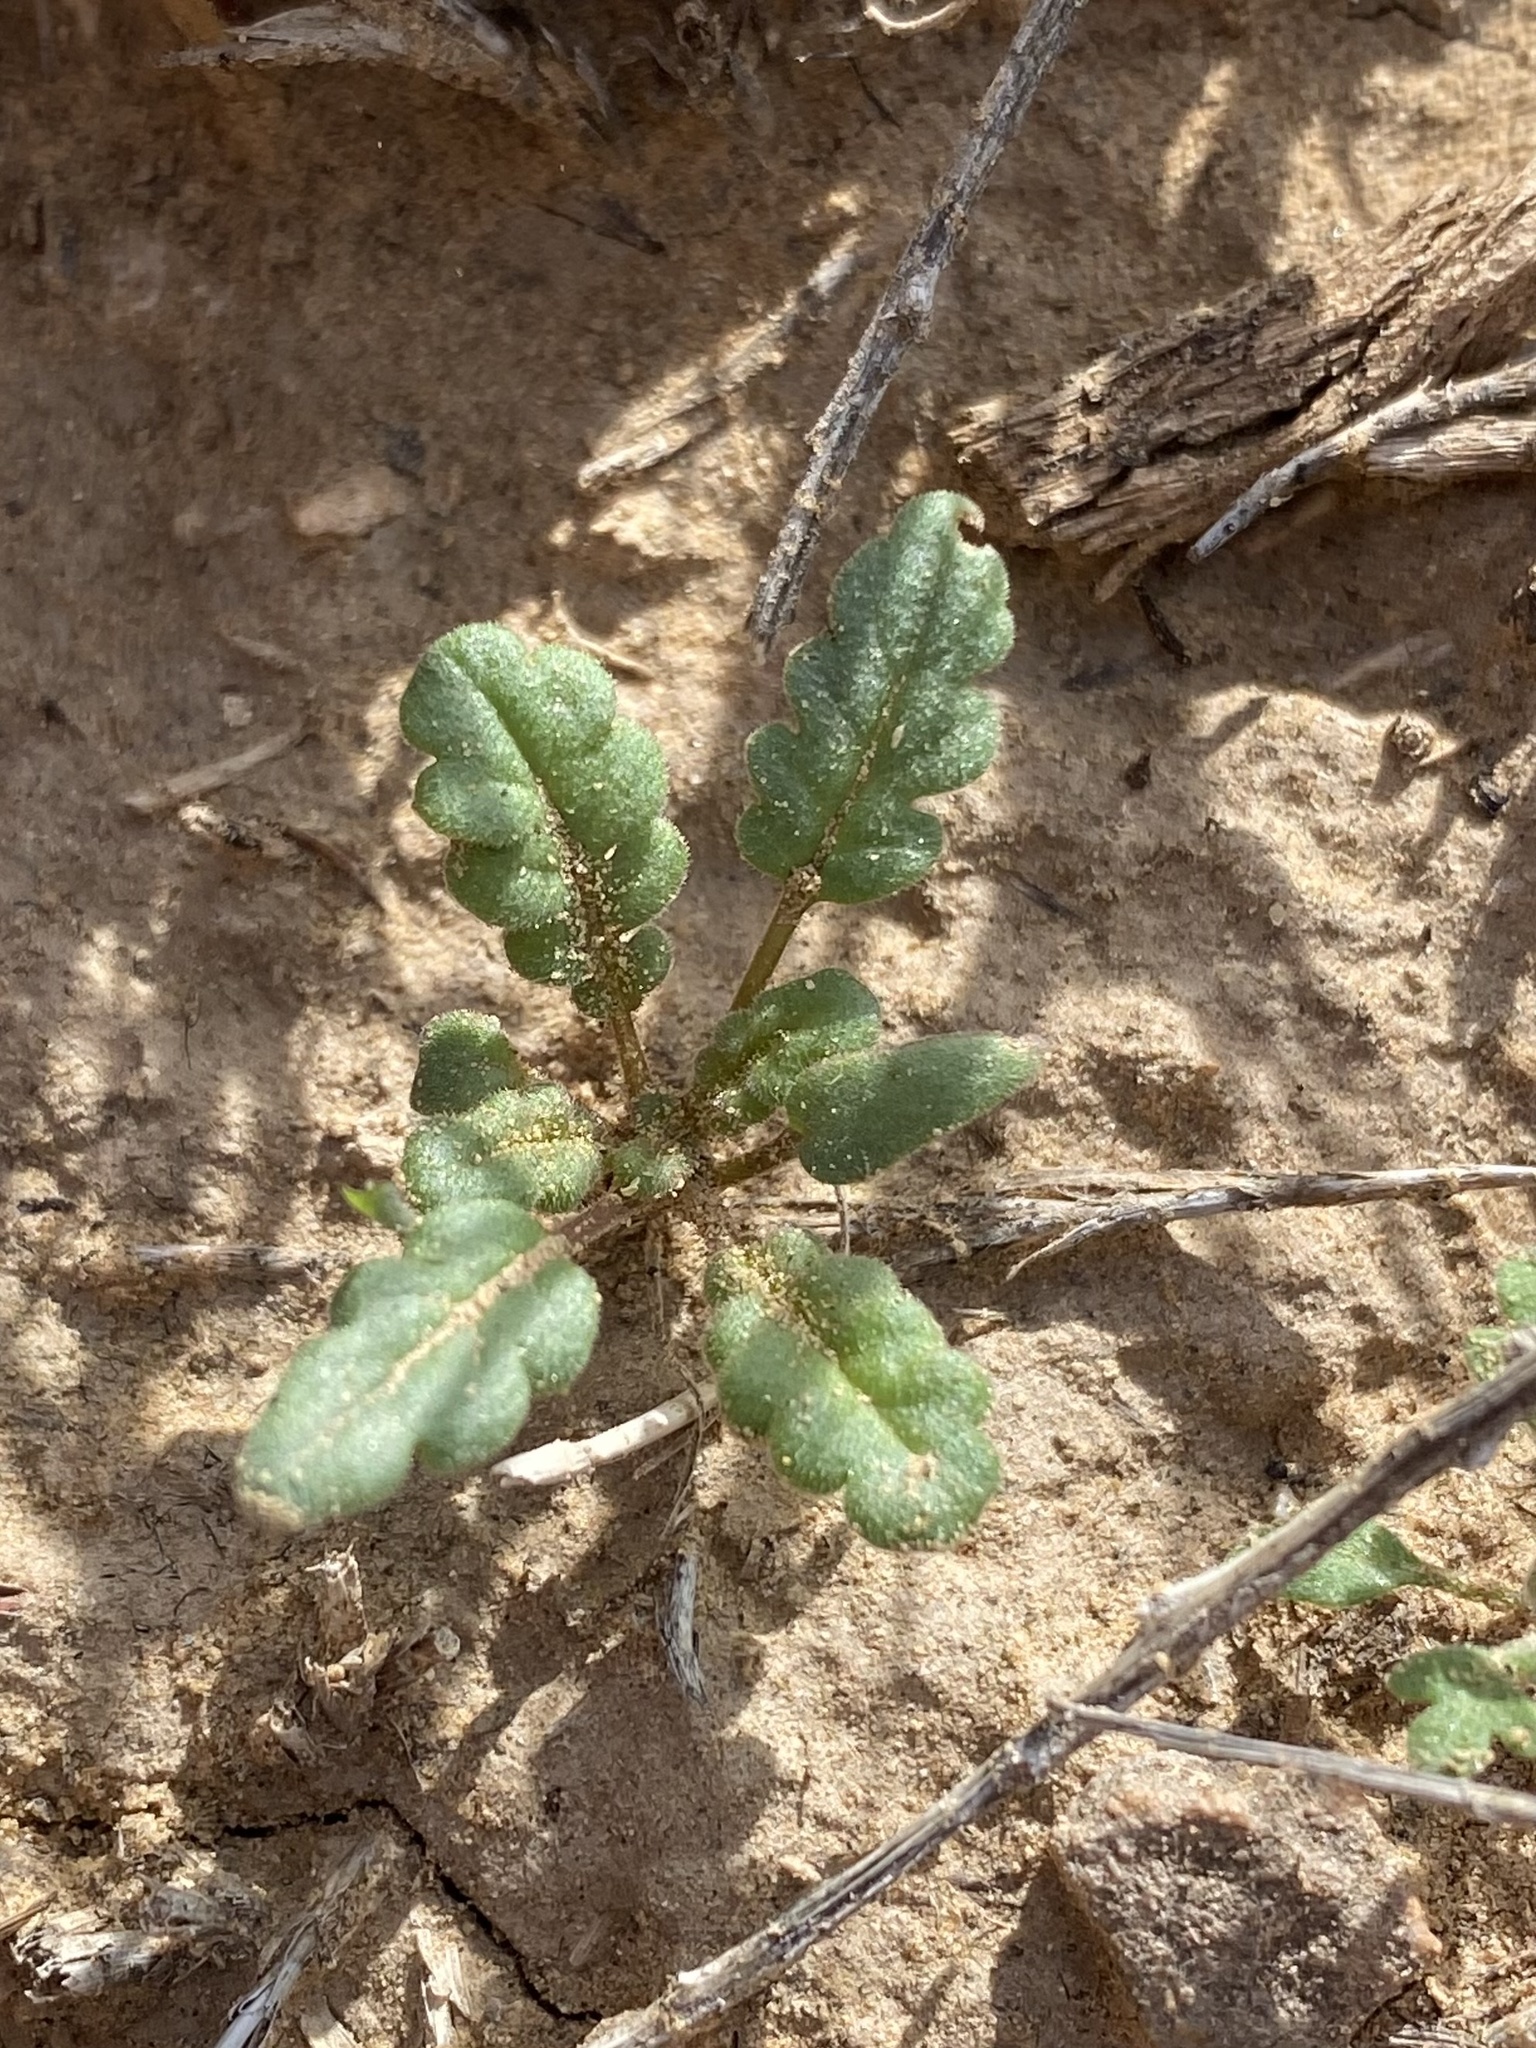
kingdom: Plantae
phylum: Tracheophyta
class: Magnoliopsida
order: Boraginales
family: Hydrophyllaceae
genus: Phacelia
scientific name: Phacelia integrifolia
